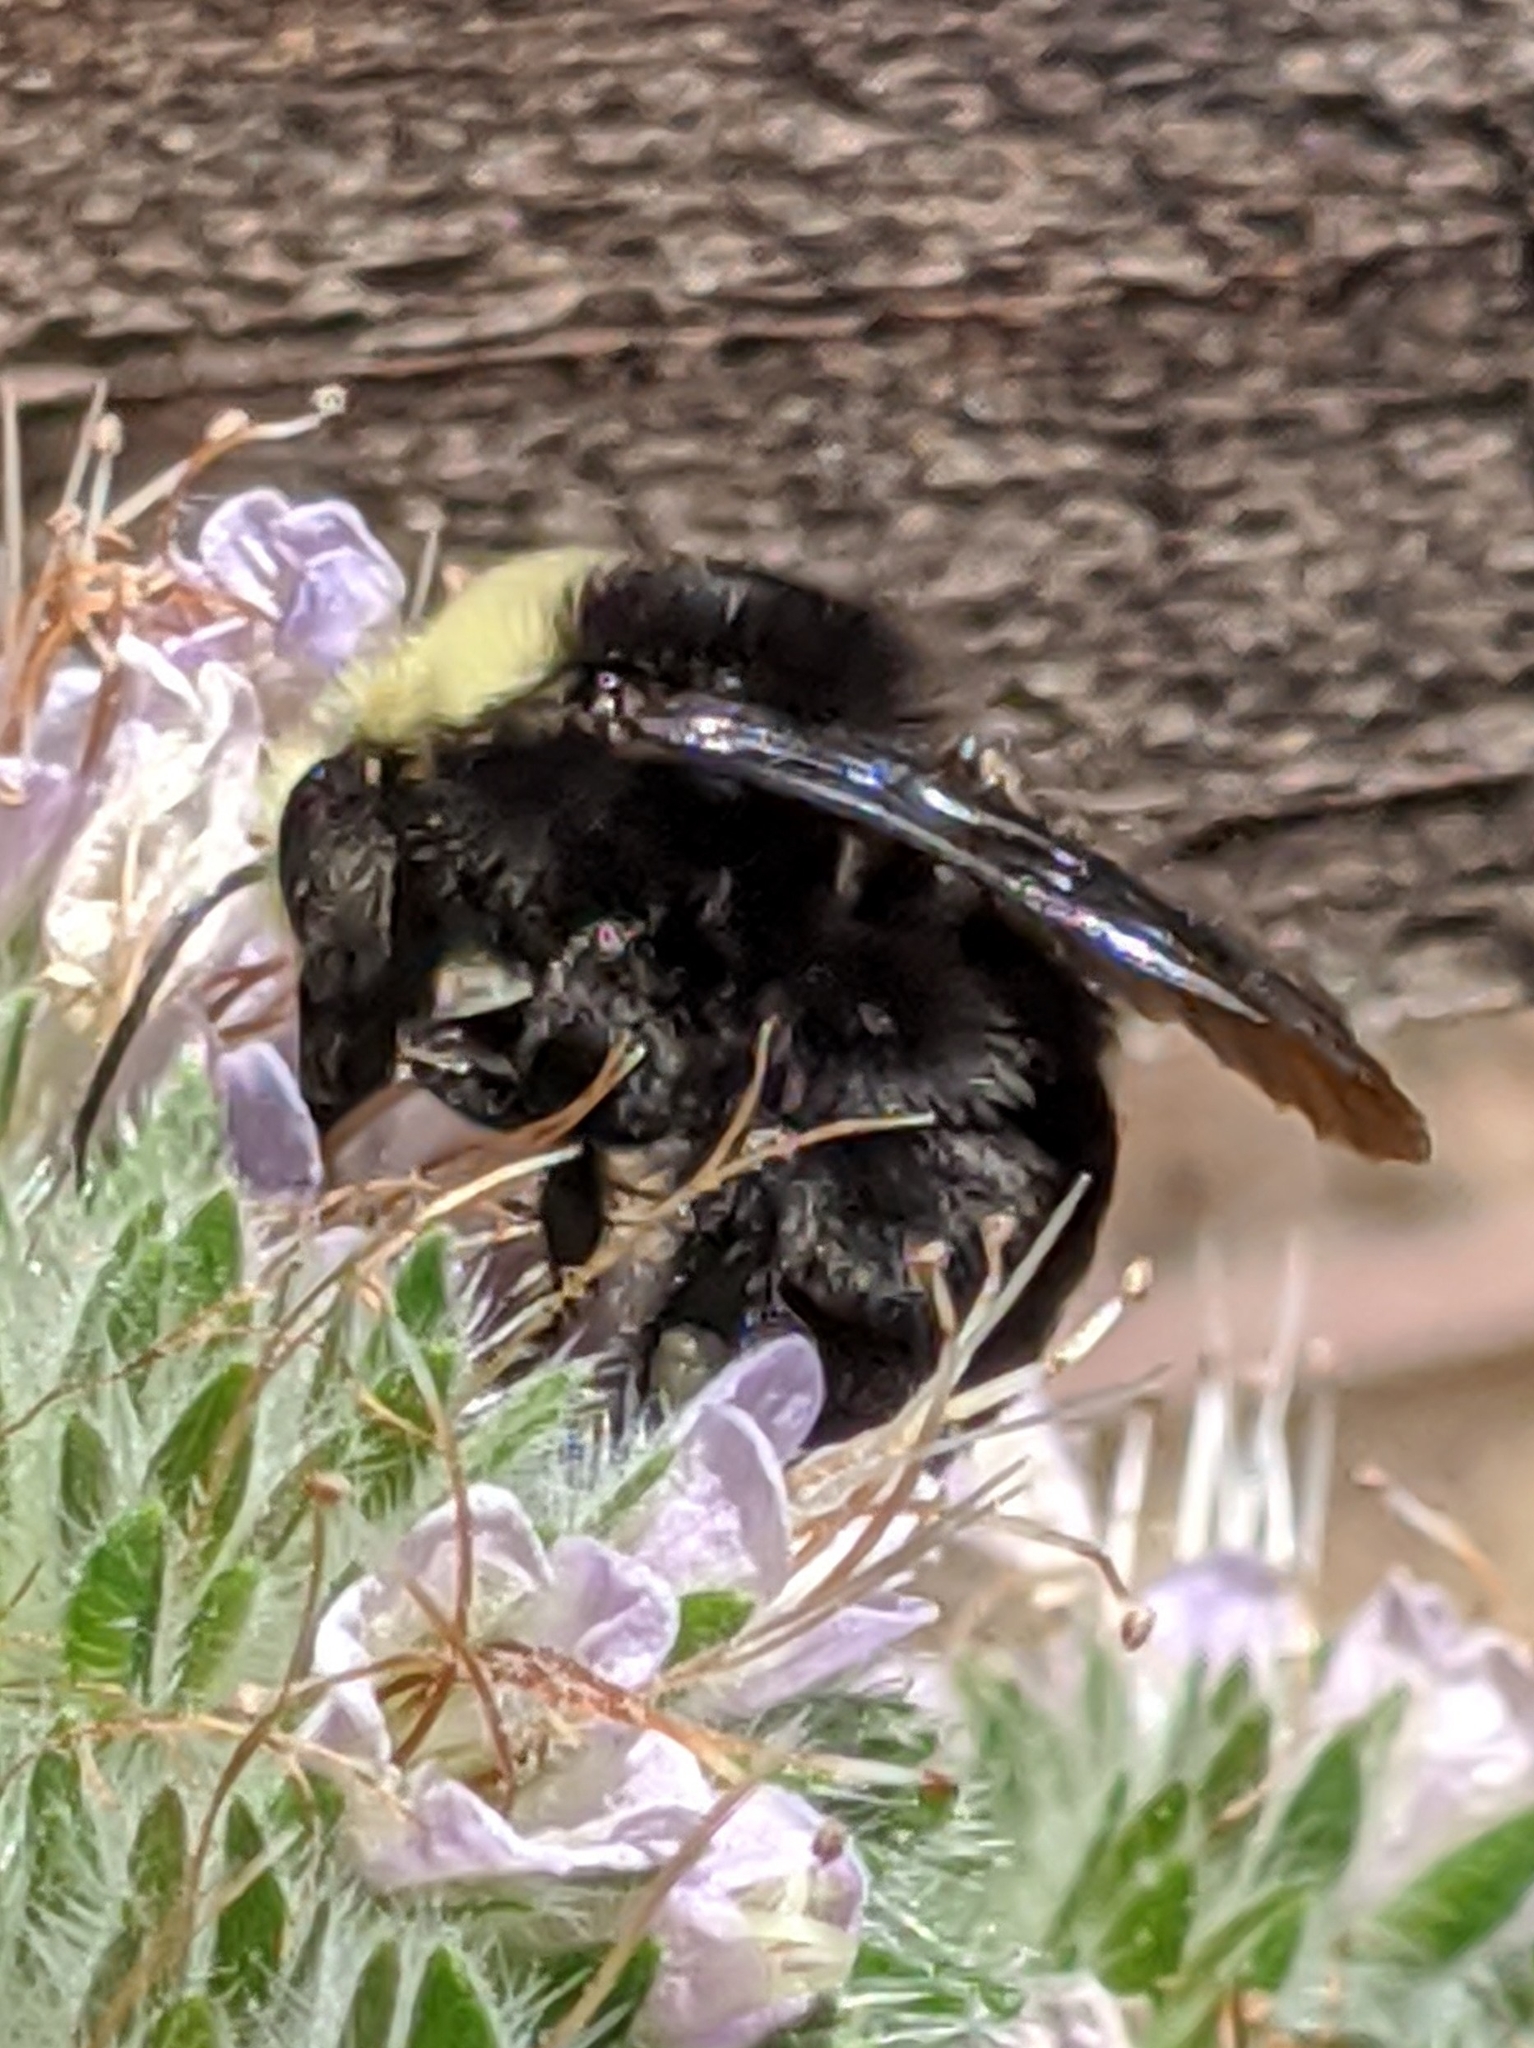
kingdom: Animalia
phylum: Arthropoda
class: Insecta
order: Hymenoptera
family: Apidae
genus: Pyrobombus
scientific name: Pyrobombus
